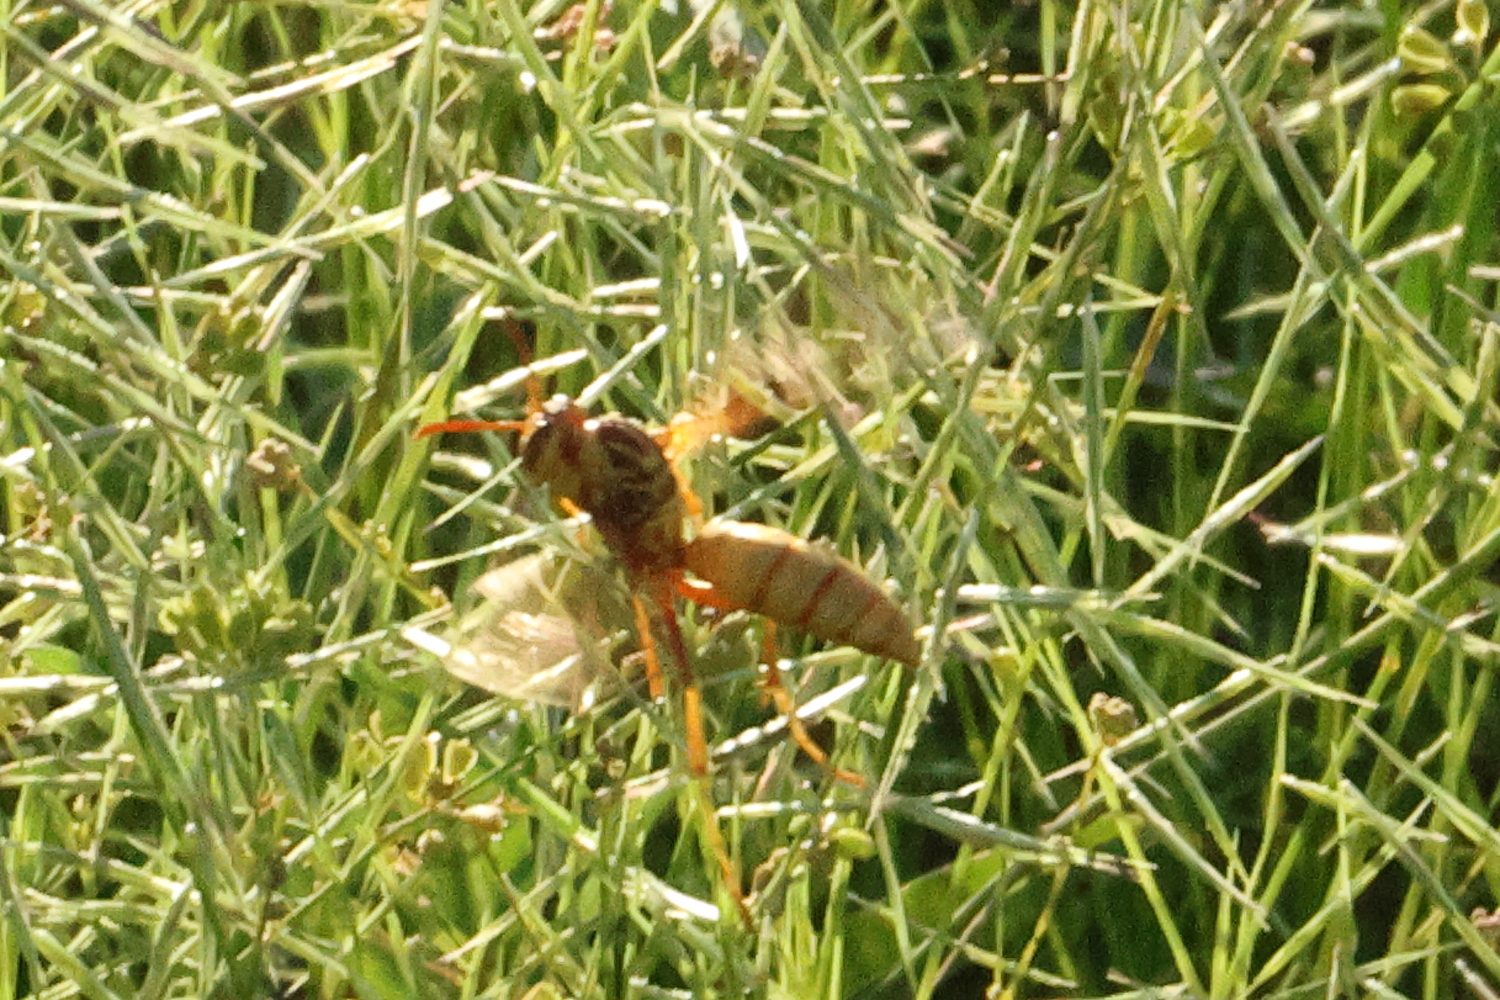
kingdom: Animalia
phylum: Arthropoda
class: Insecta
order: Hymenoptera
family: Eumenidae
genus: Polistes
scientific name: Polistes aurifer
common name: Paper wasp
